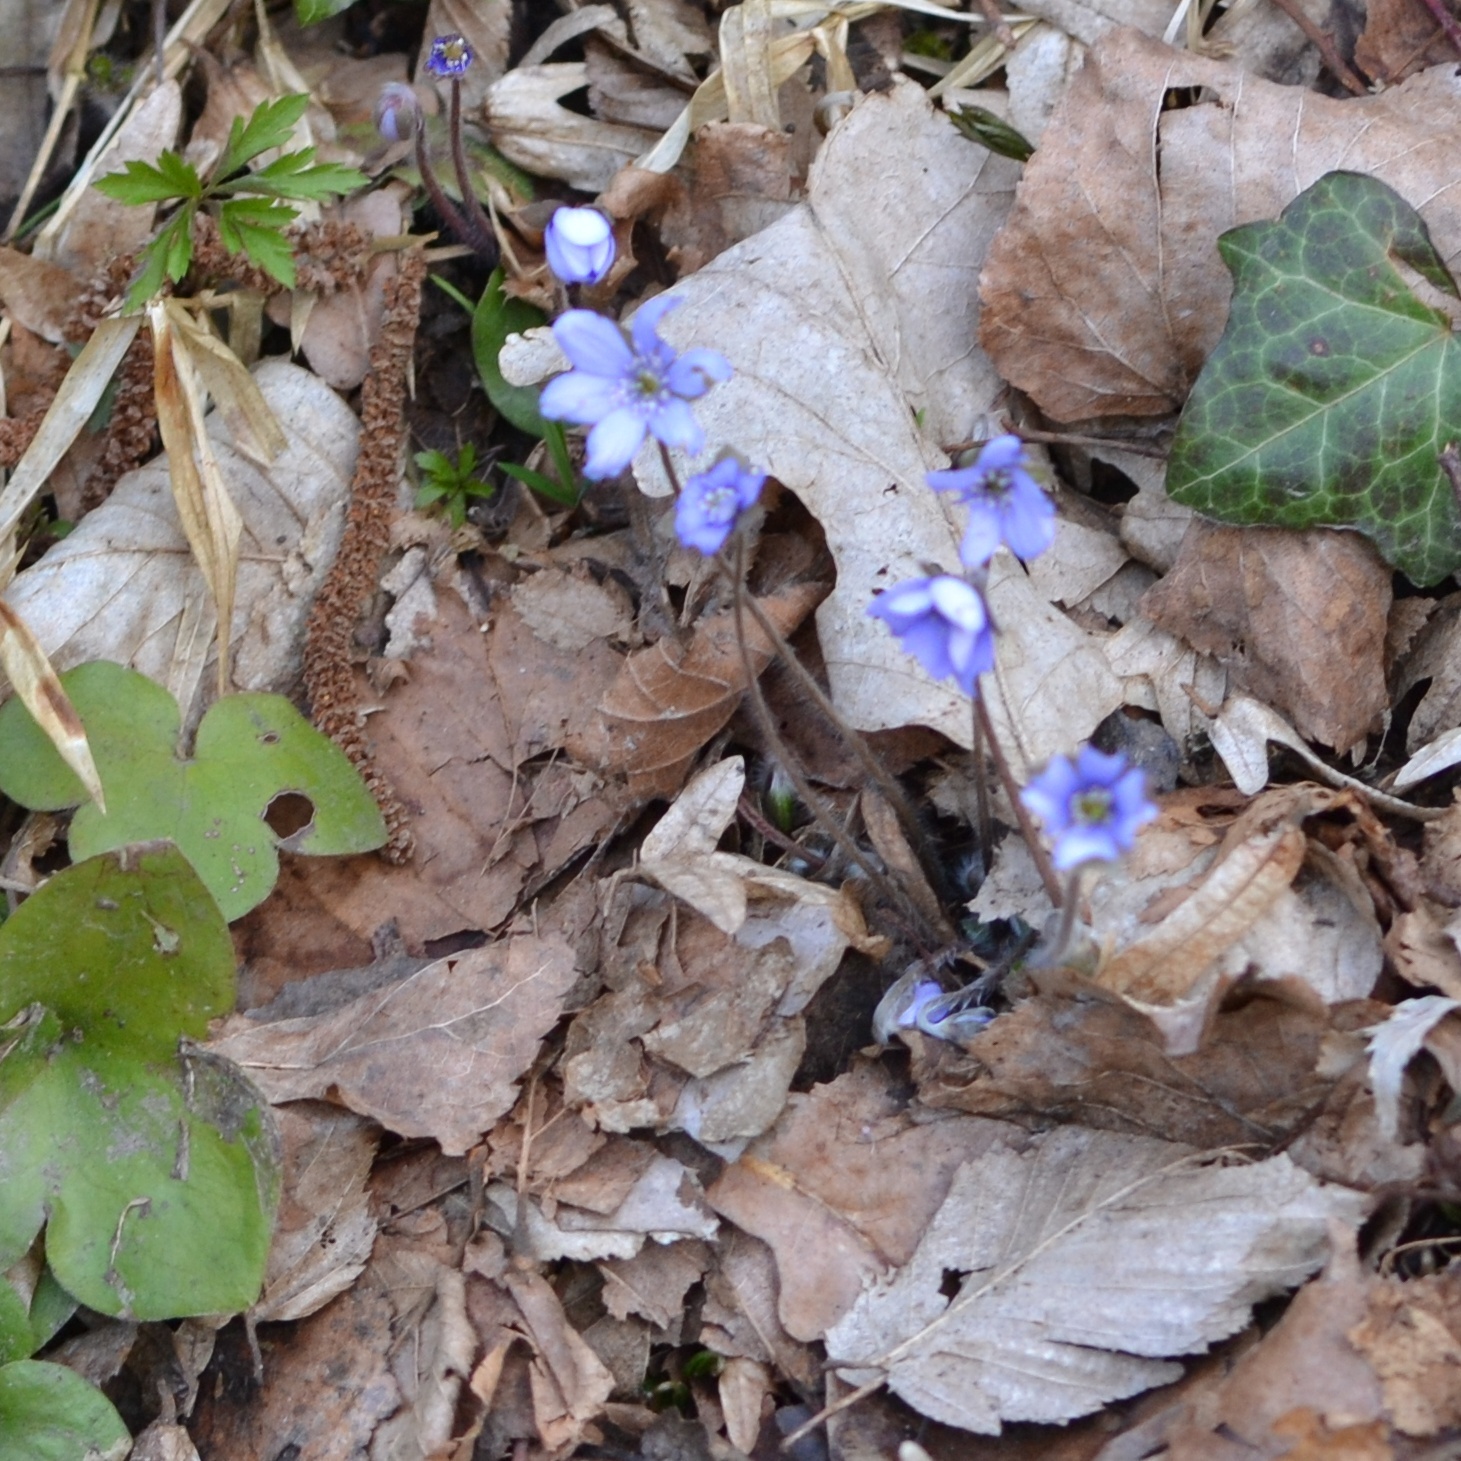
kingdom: Plantae
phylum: Tracheophyta
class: Magnoliopsida
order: Ranunculales
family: Ranunculaceae
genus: Hepatica
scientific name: Hepatica nobilis
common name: Liverleaf
